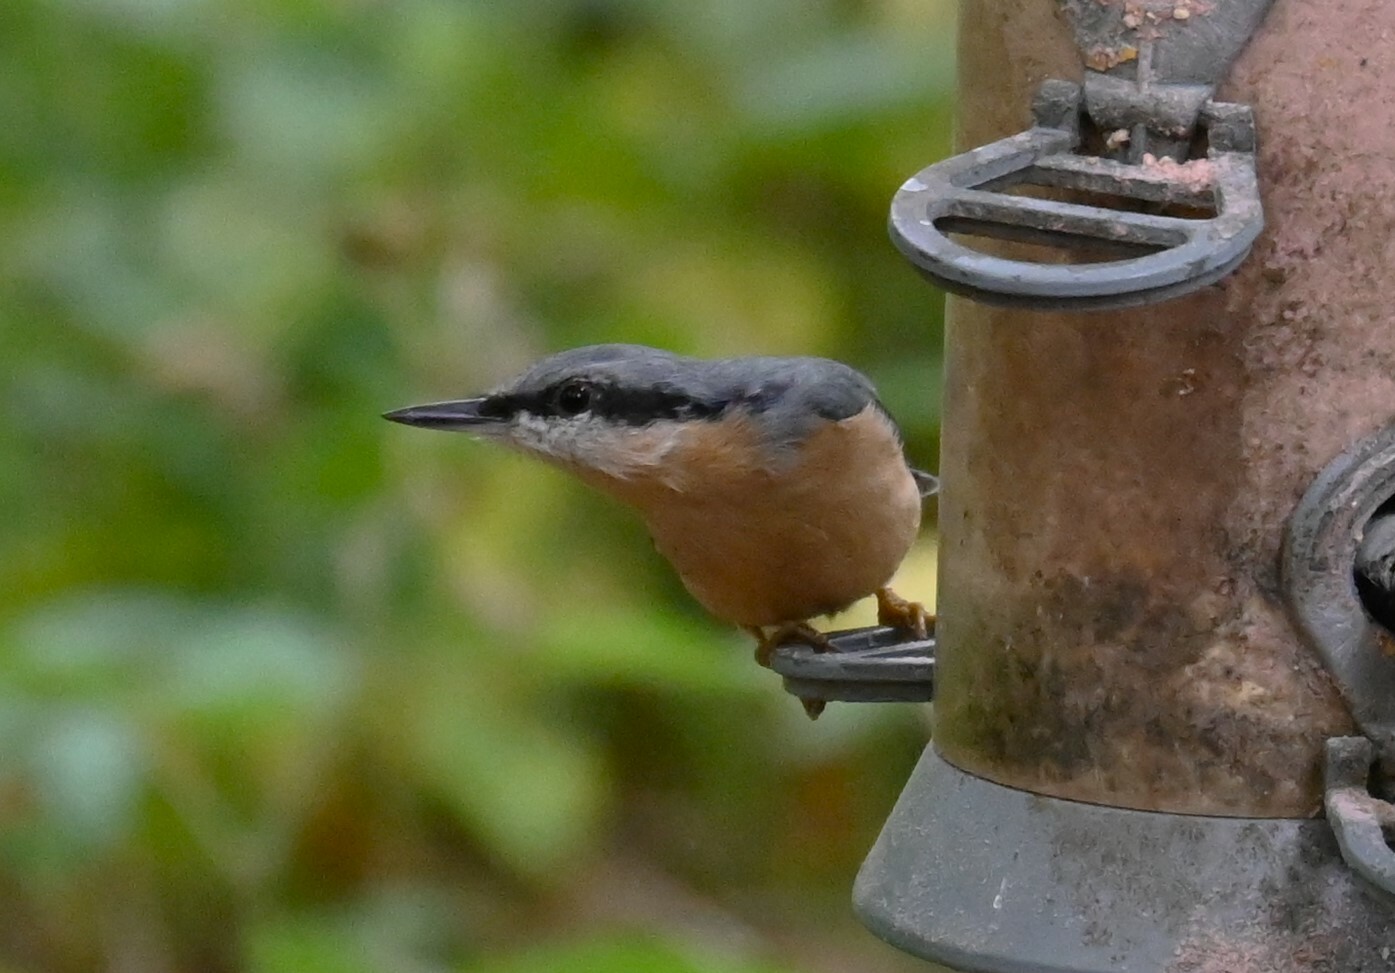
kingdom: Animalia
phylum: Chordata
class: Aves
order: Passeriformes
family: Sittidae
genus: Sitta
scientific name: Sitta europaea
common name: Eurasian nuthatch
